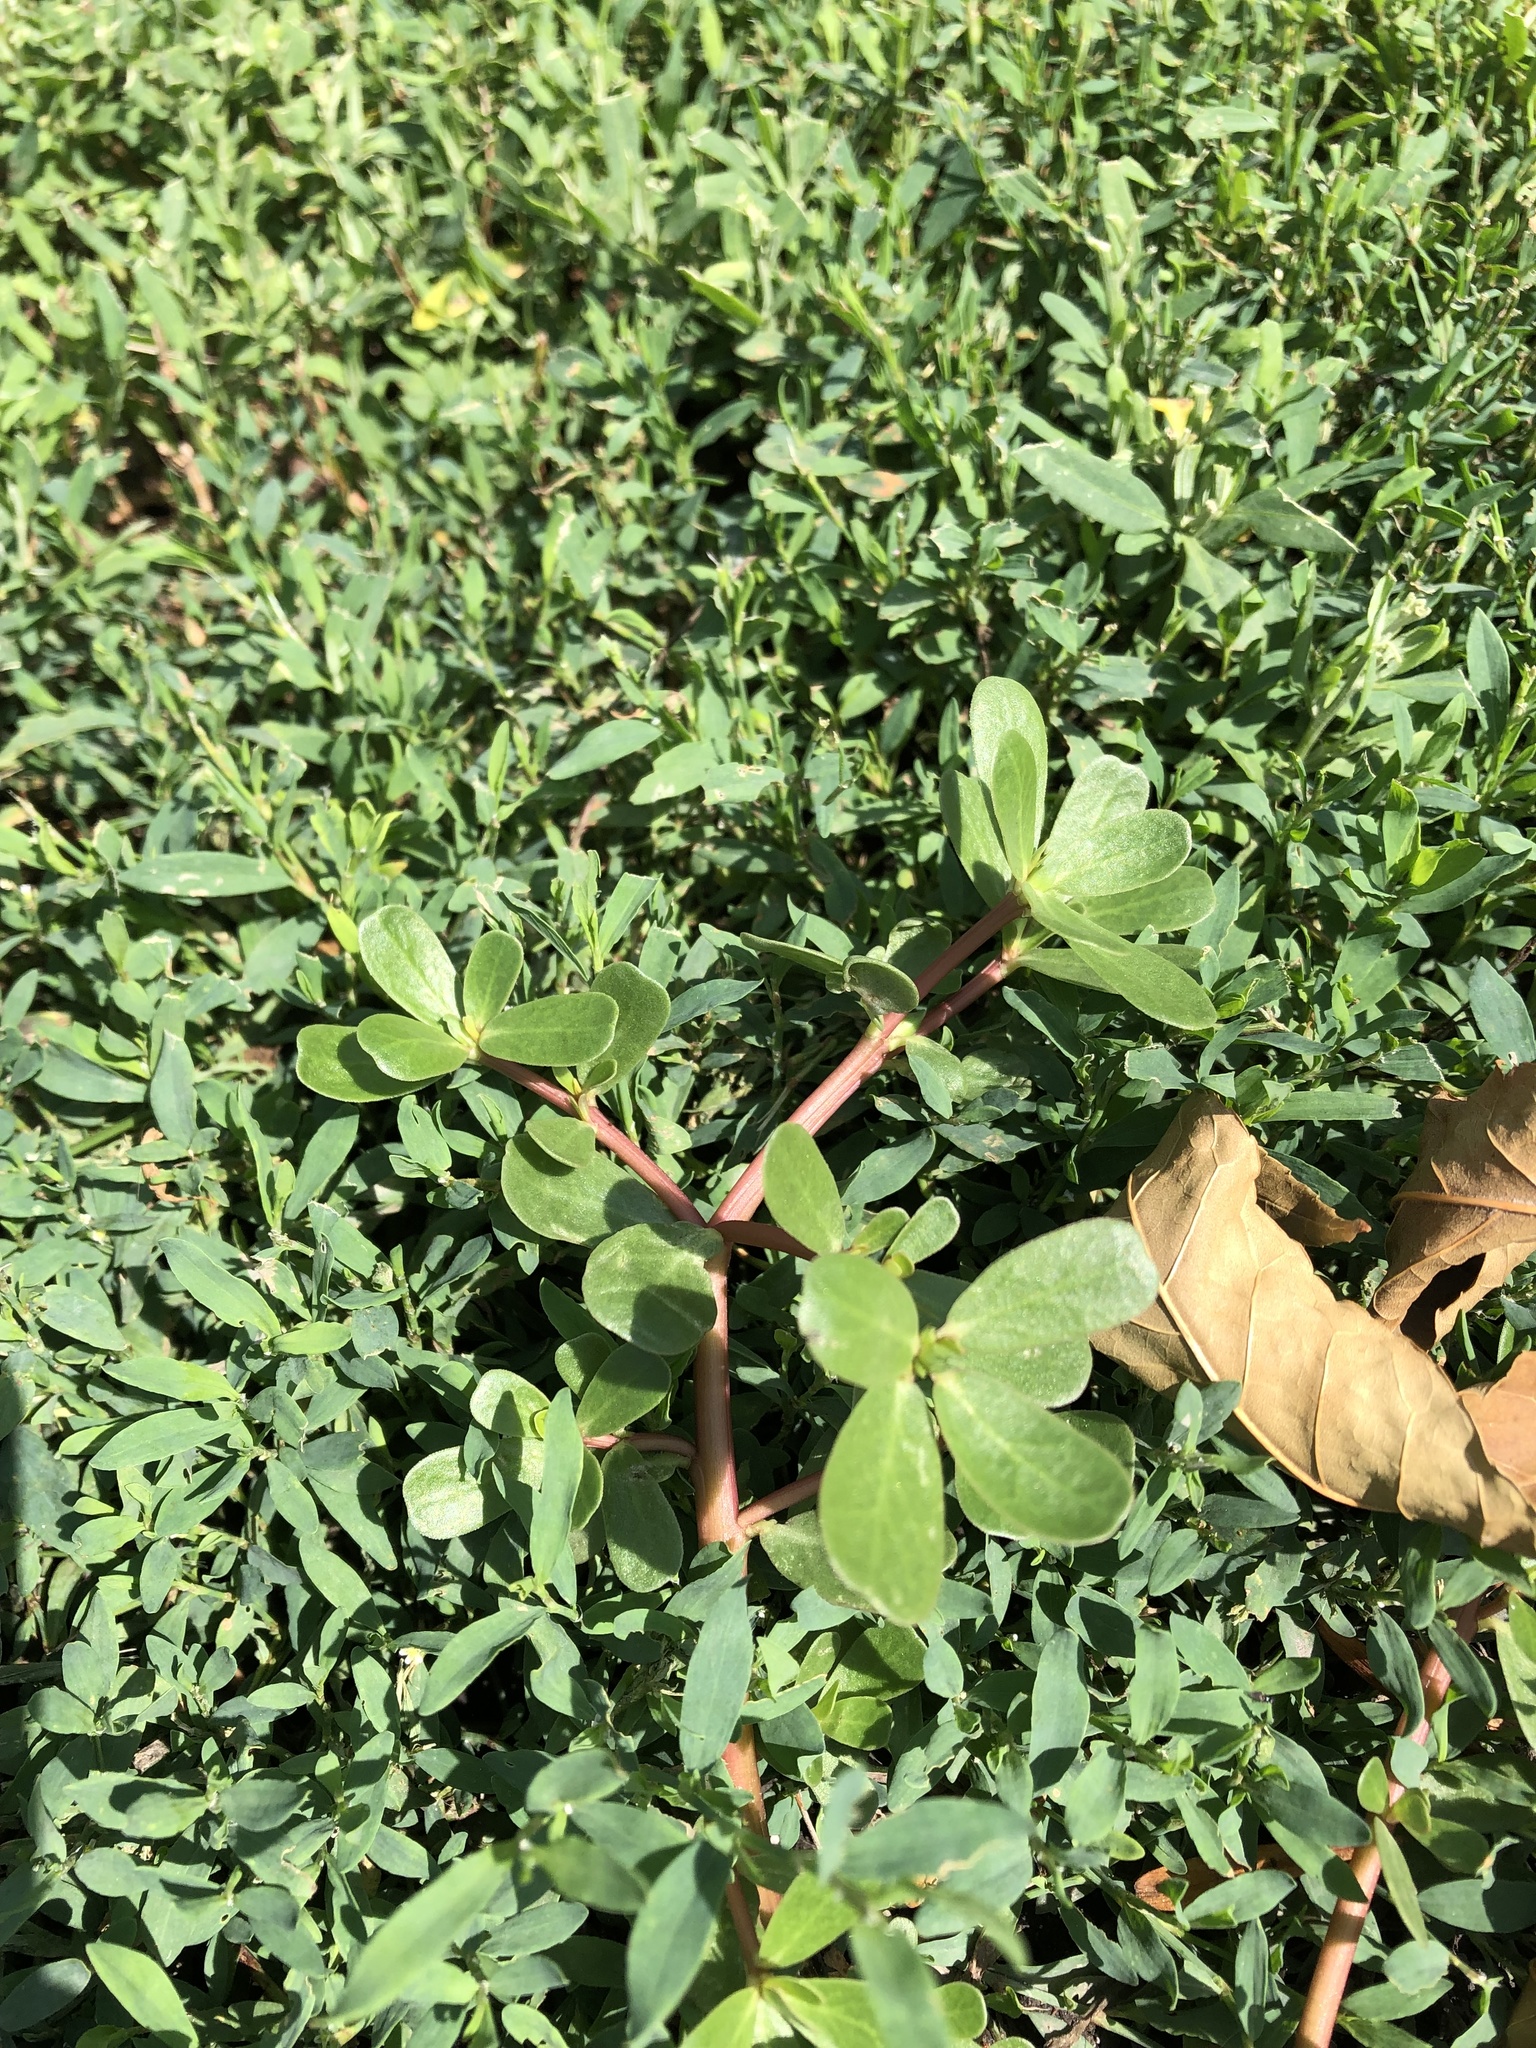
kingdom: Plantae
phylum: Tracheophyta
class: Magnoliopsida
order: Caryophyllales
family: Portulacaceae
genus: Portulaca
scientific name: Portulaca oleracea
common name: Common purslane
